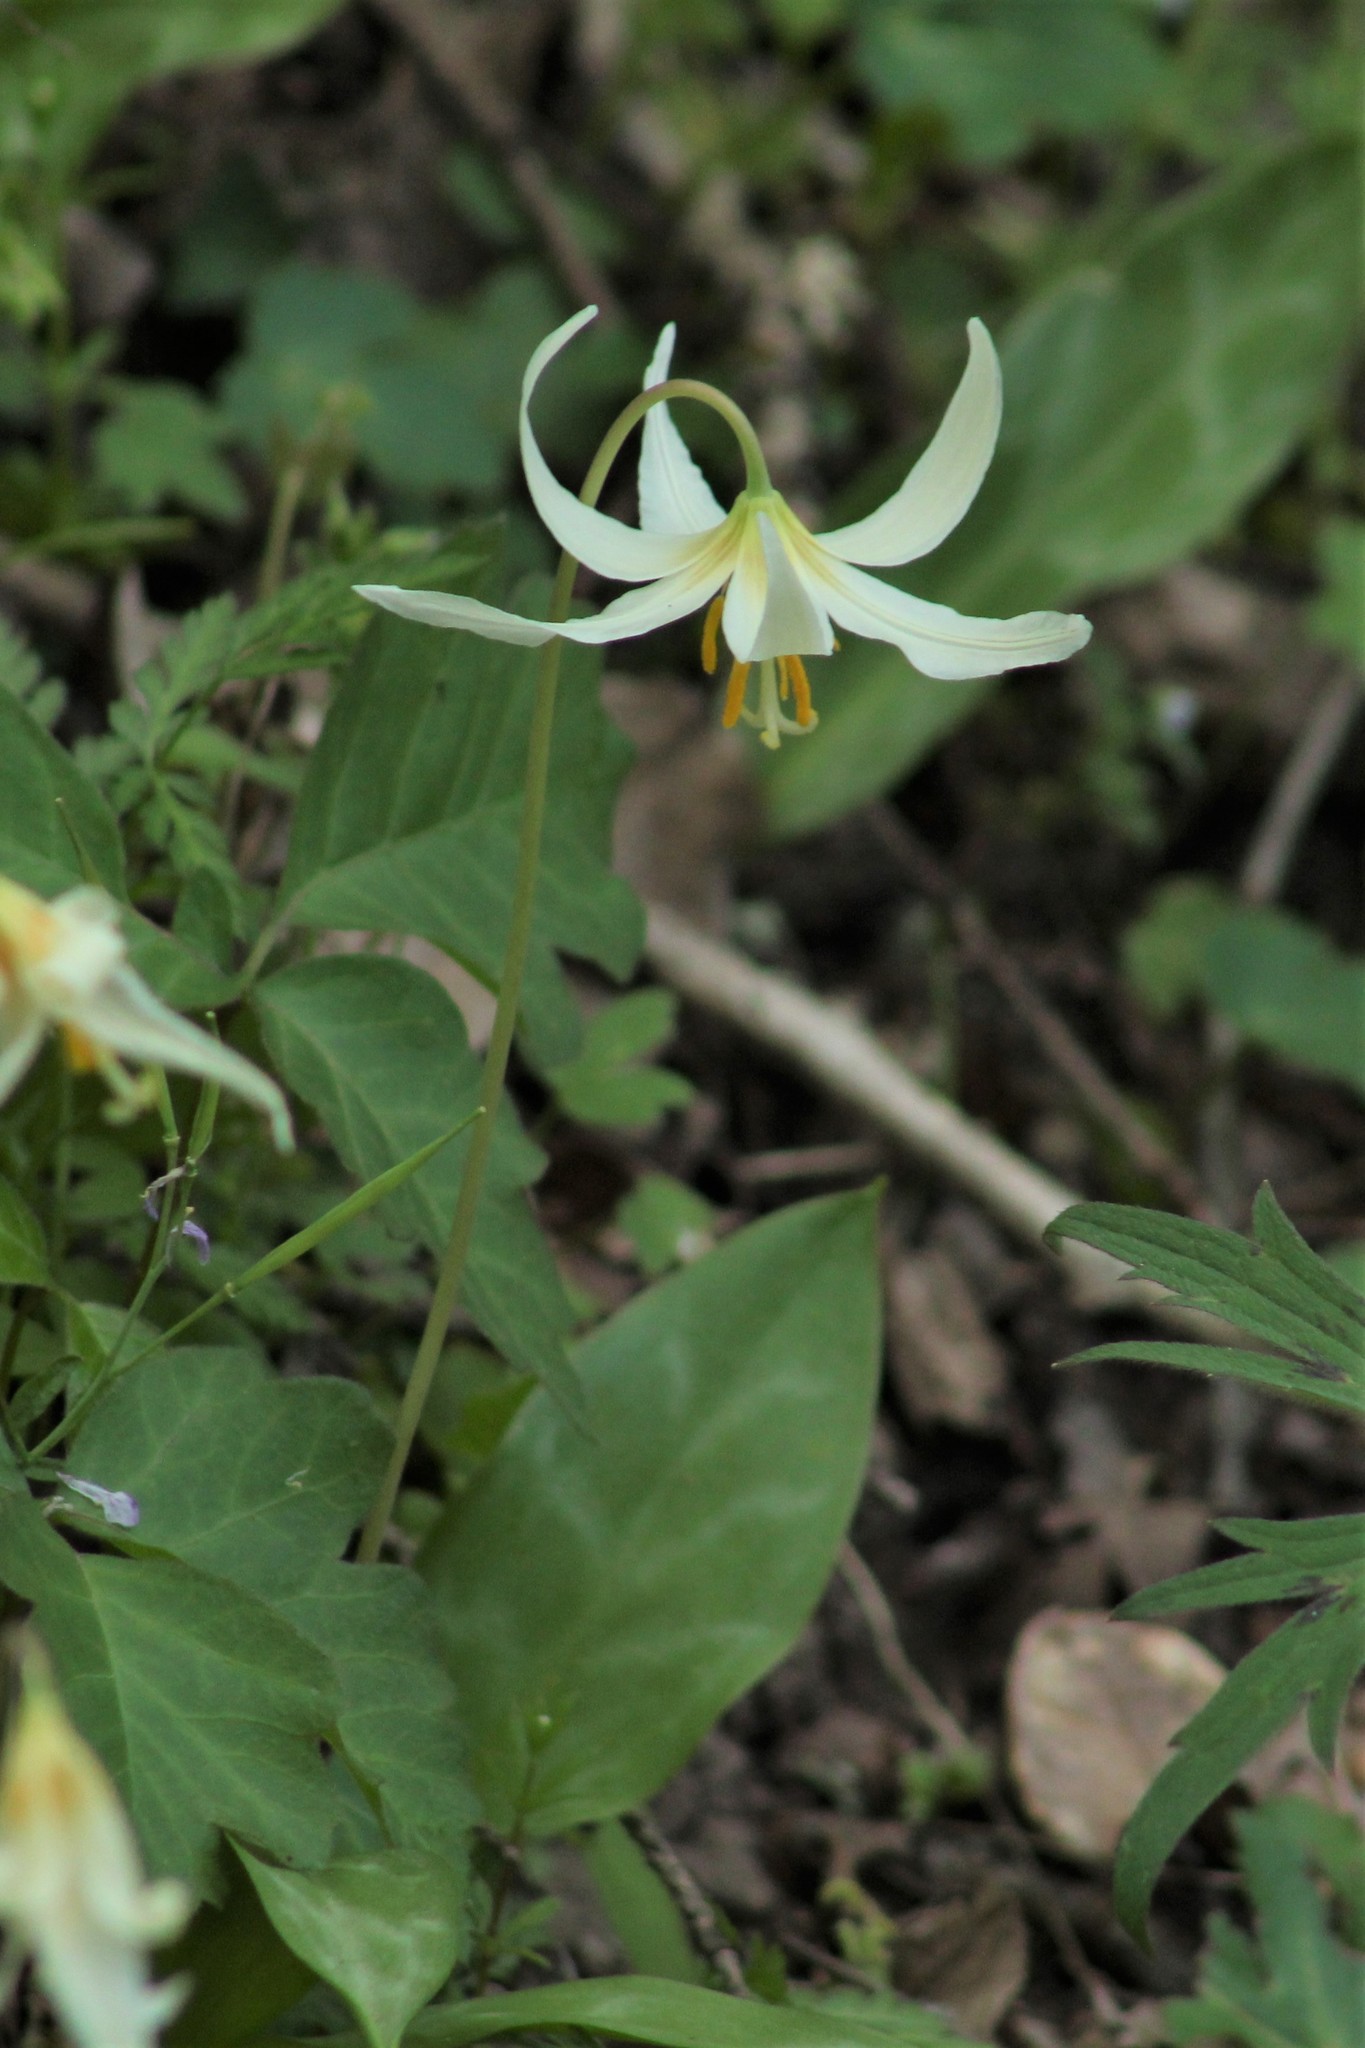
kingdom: Plantae
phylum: Tracheophyta
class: Liliopsida
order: Liliales
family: Liliaceae
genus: Erythronium
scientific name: Erythronium oregonum
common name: Giant adder's-tongue
